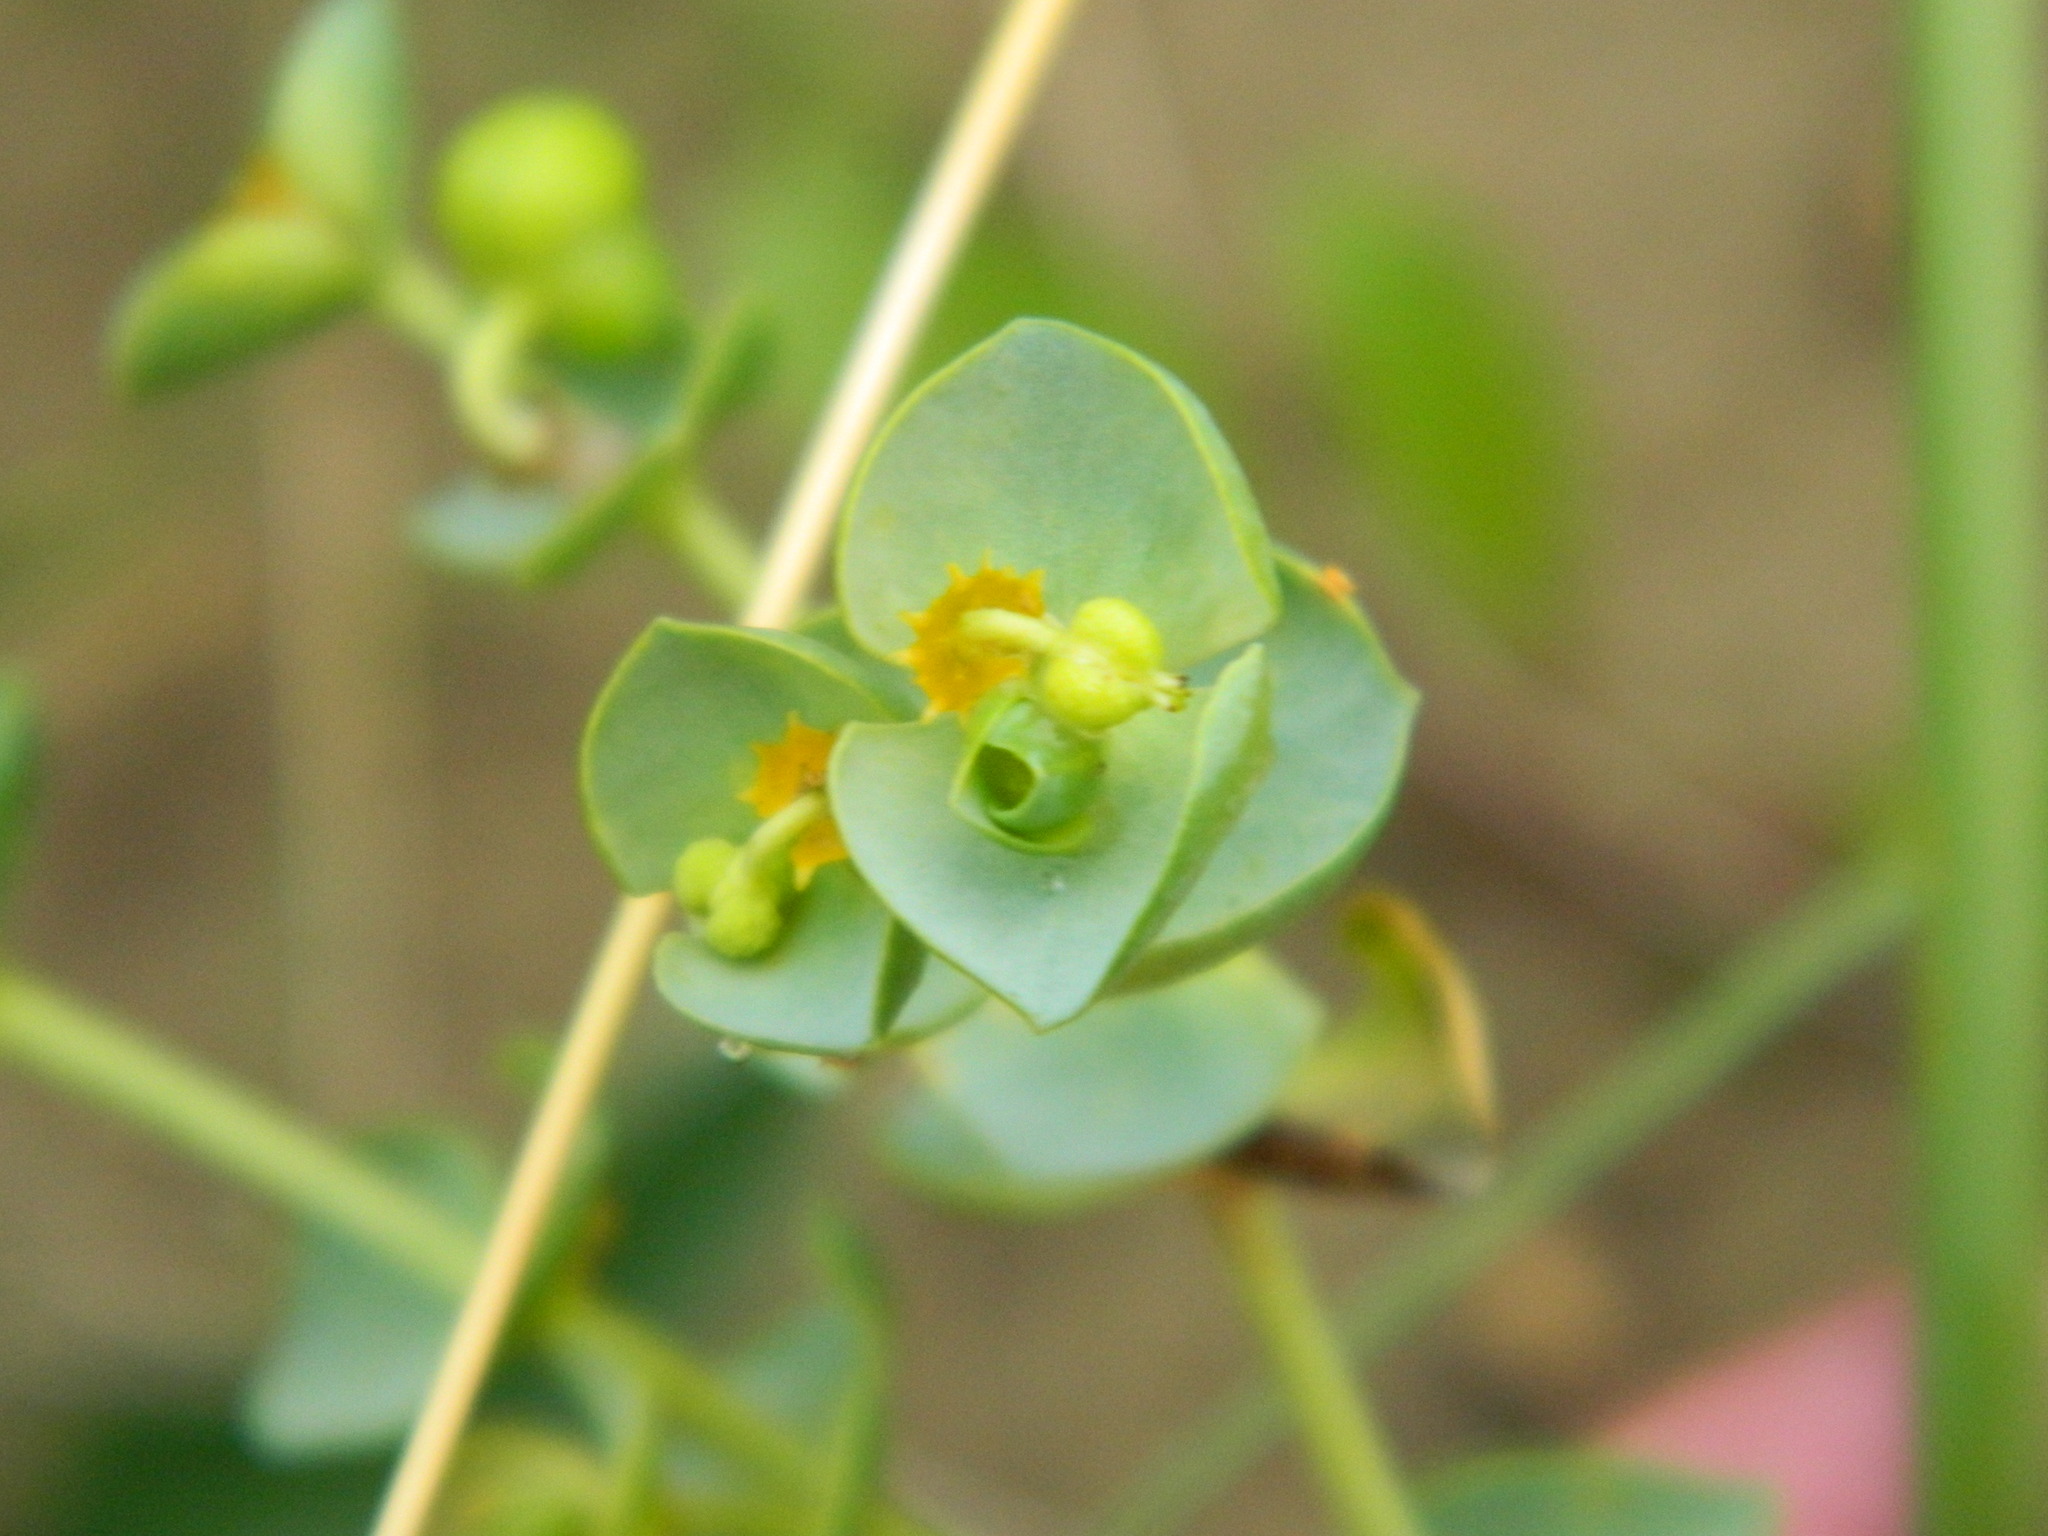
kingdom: Plantae
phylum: Tracheophyta
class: Magnoliopsida
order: Malpighiales
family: Euphorbiaceae
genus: Euphorbia
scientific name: Euphorbia paralias
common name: Sea spurge
